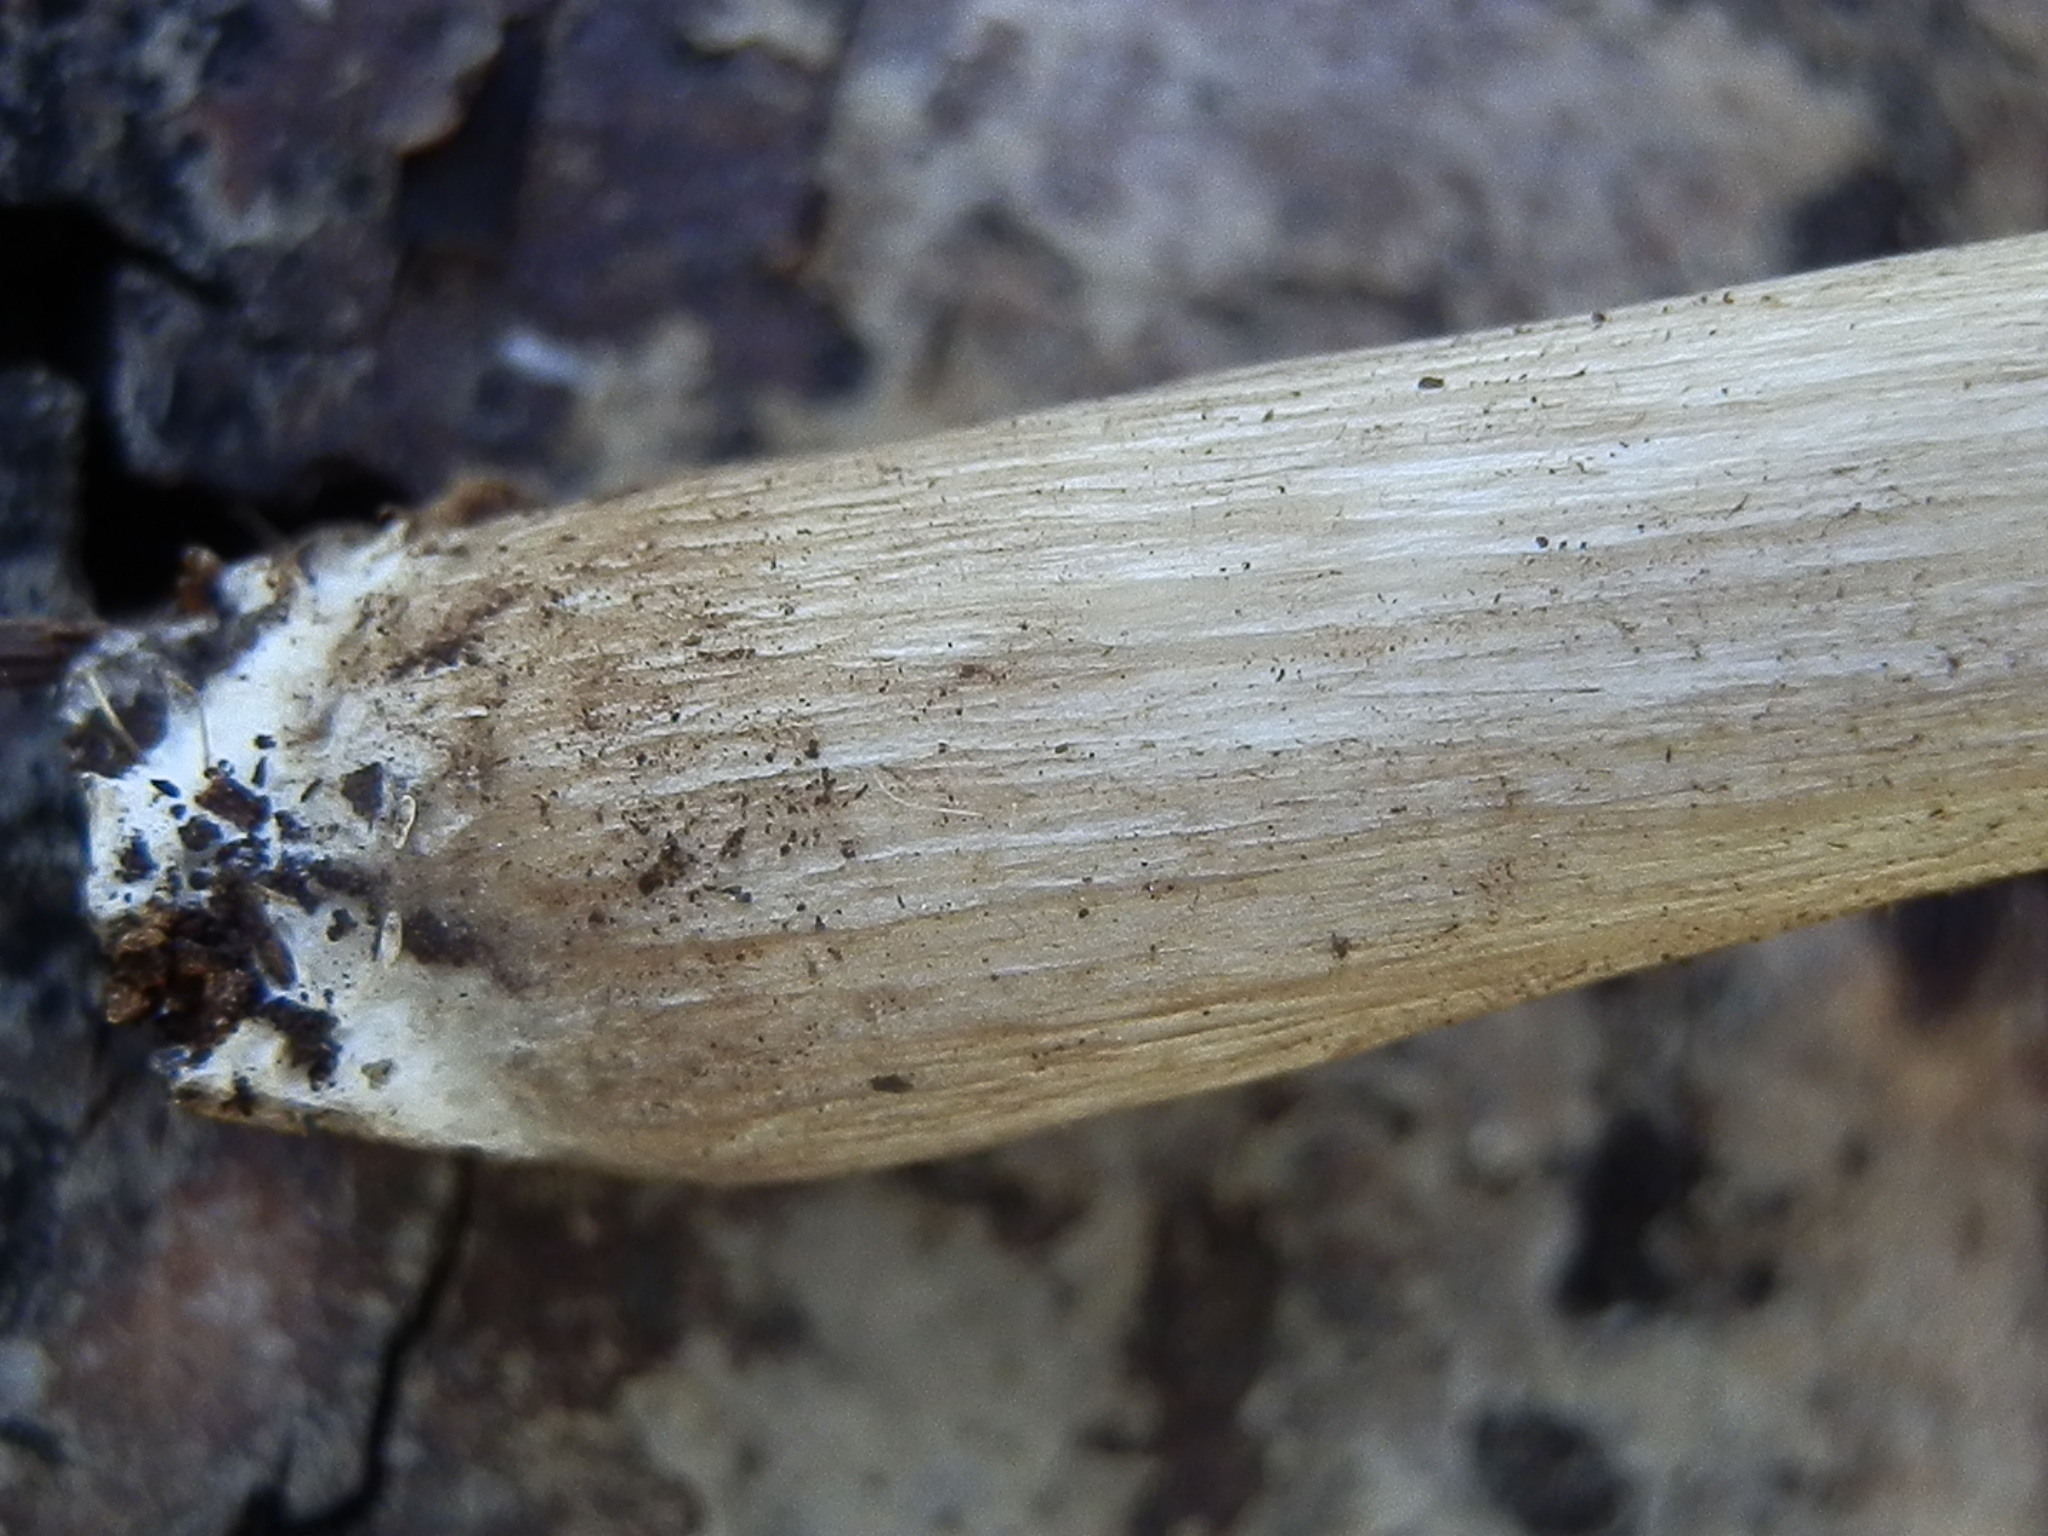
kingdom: Fungi
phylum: Basidiomycota
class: Agaricomycetes
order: Agaricales
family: Tricholomataceae
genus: Megacollybia
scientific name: Megacollybia fallax
